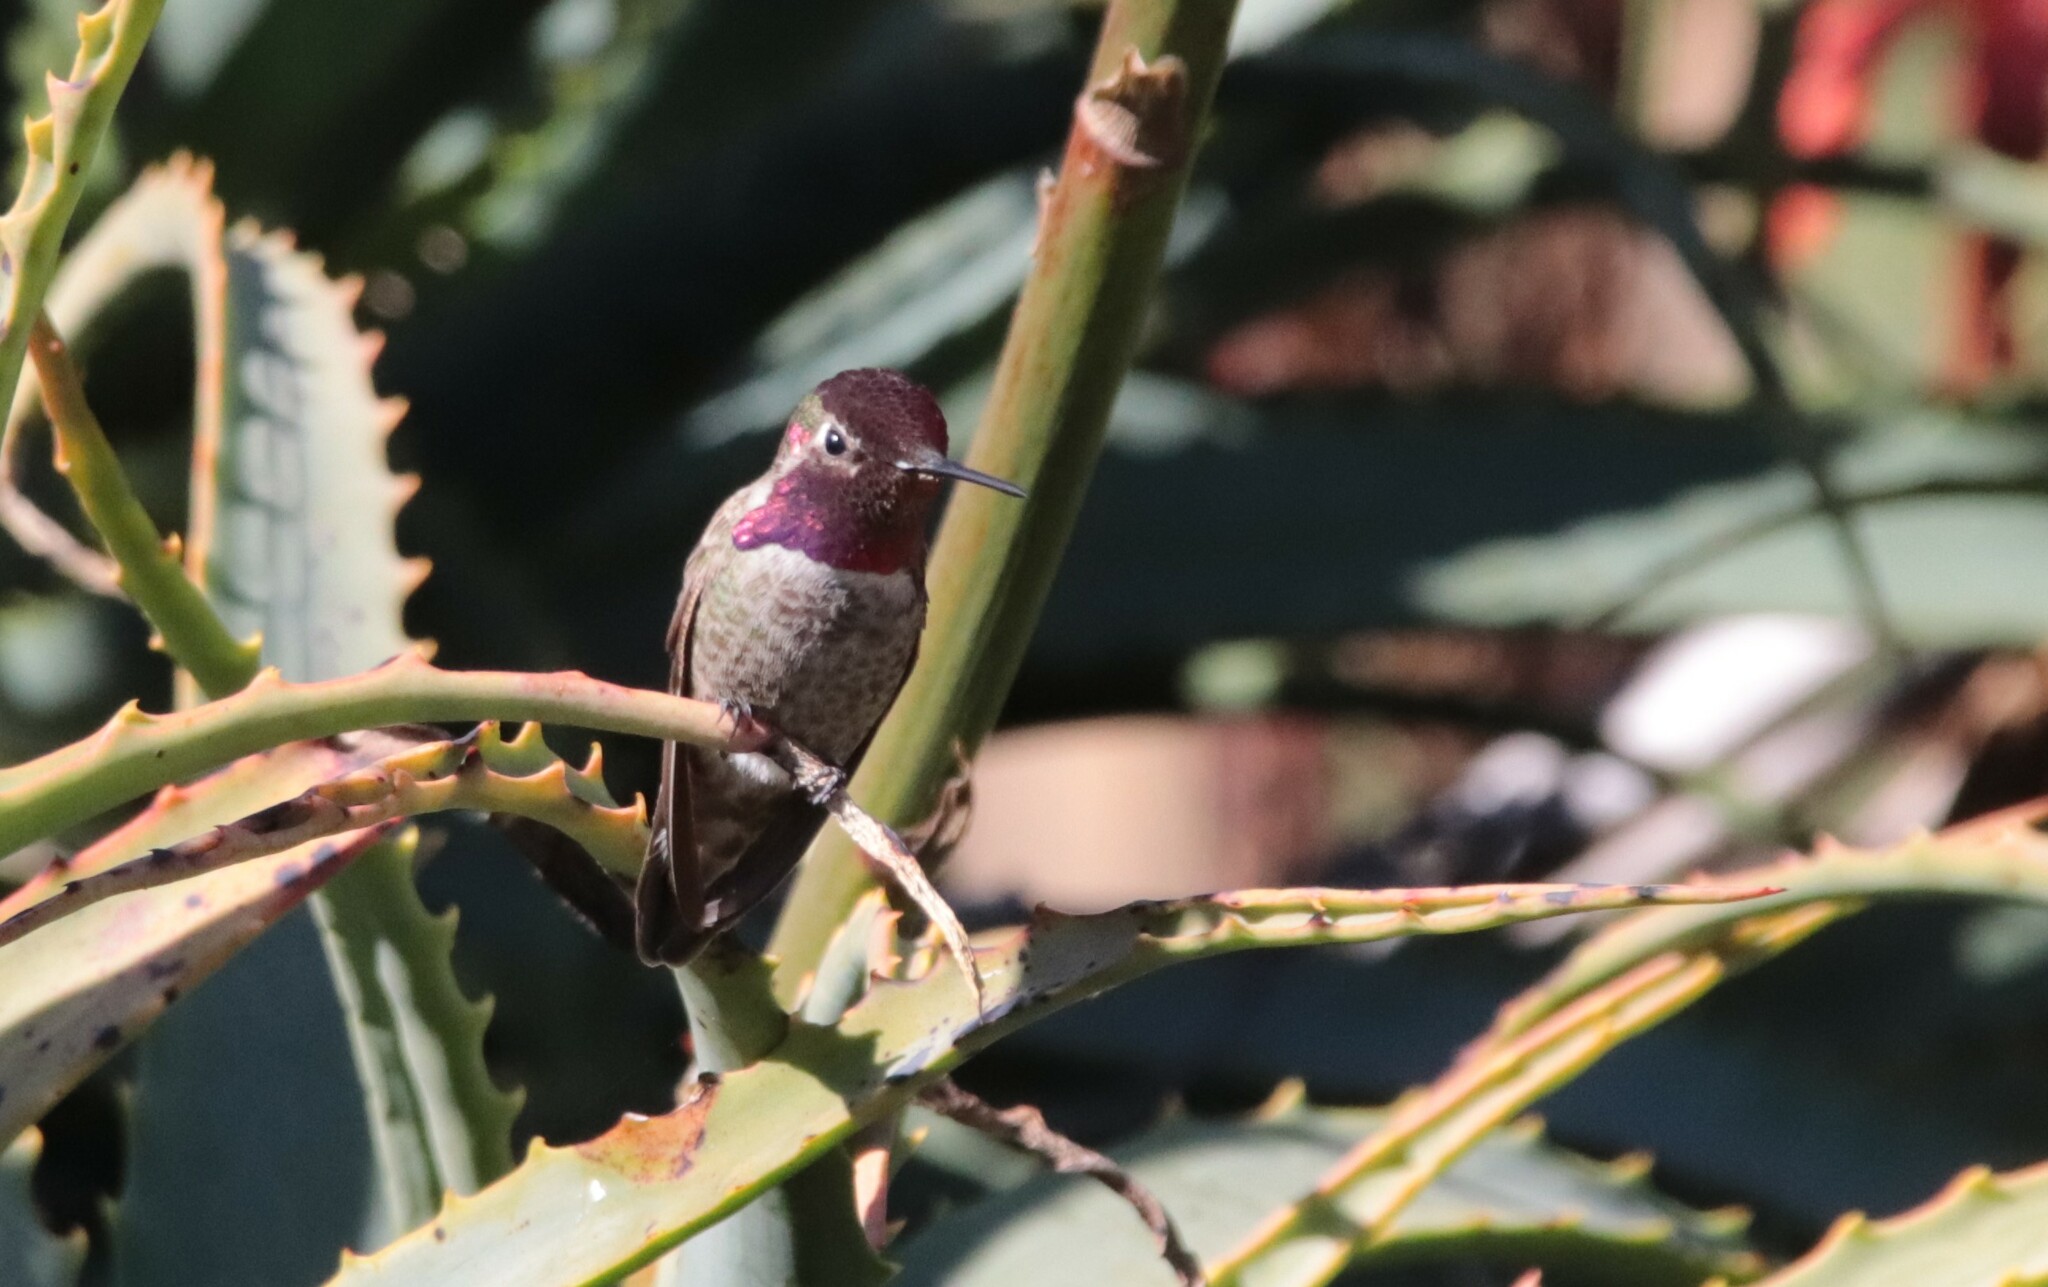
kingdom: Animalia
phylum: Chordata
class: Aves
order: Apodiformes
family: Trochilidae
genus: Calypte
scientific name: Calypte anna
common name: Anna's hummingbird
